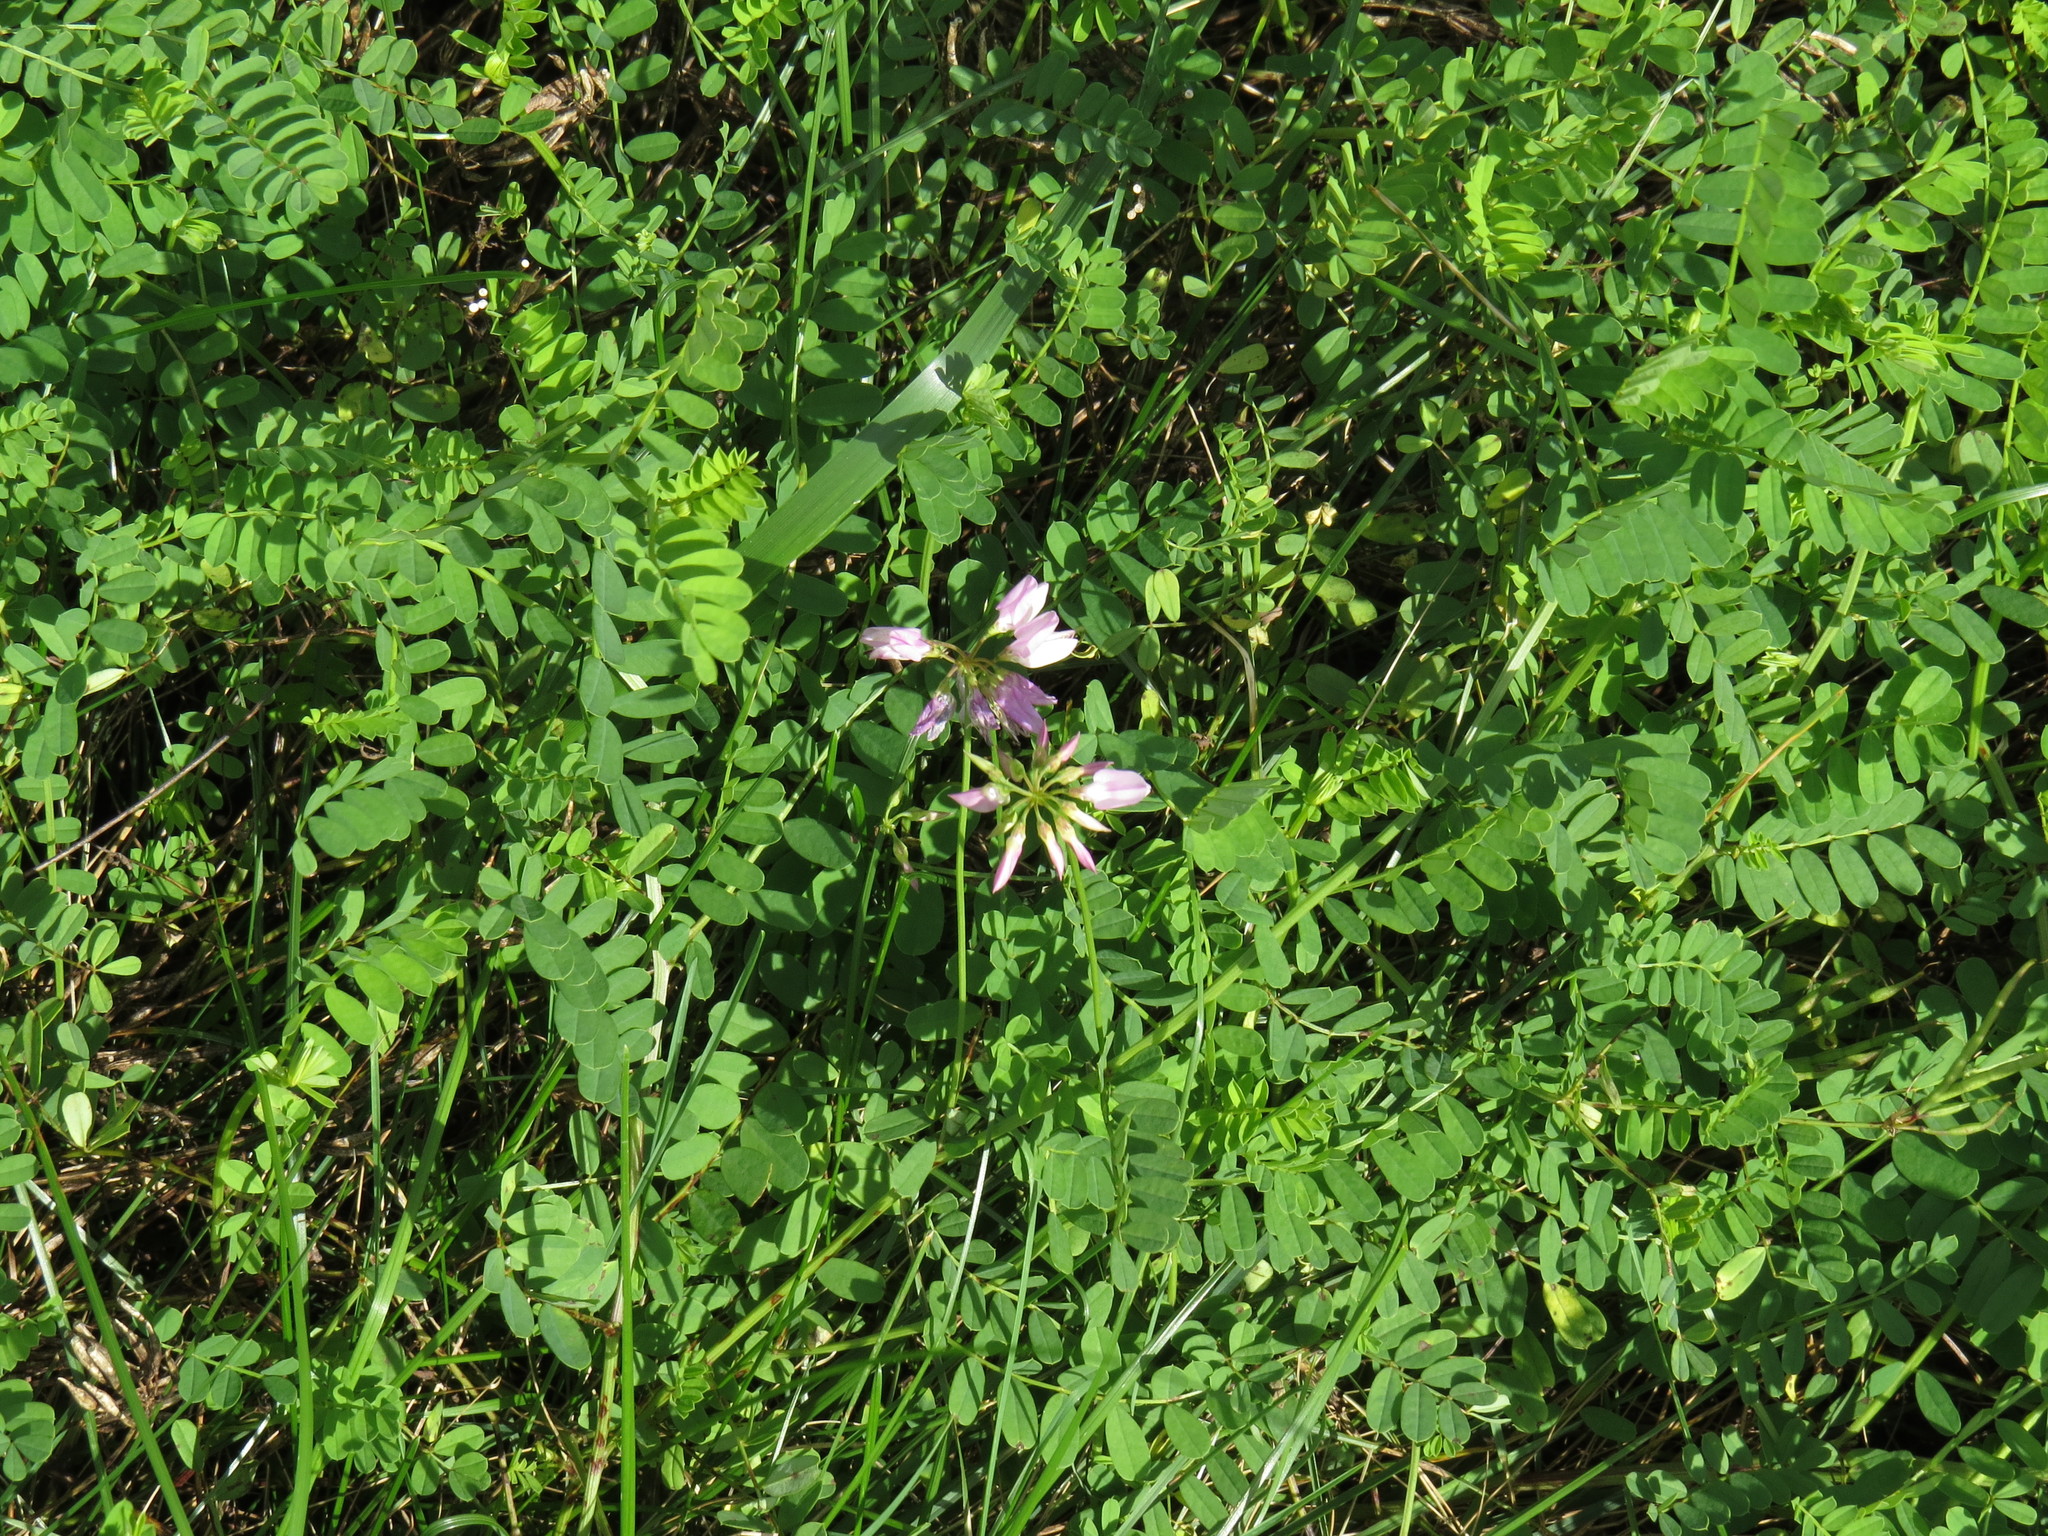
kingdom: Plantae
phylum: Tracheophyta
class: Magnoliopsida
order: Fabales
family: Fabaceae
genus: Coronilla
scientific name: Coronilla varia
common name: Crownvetch
